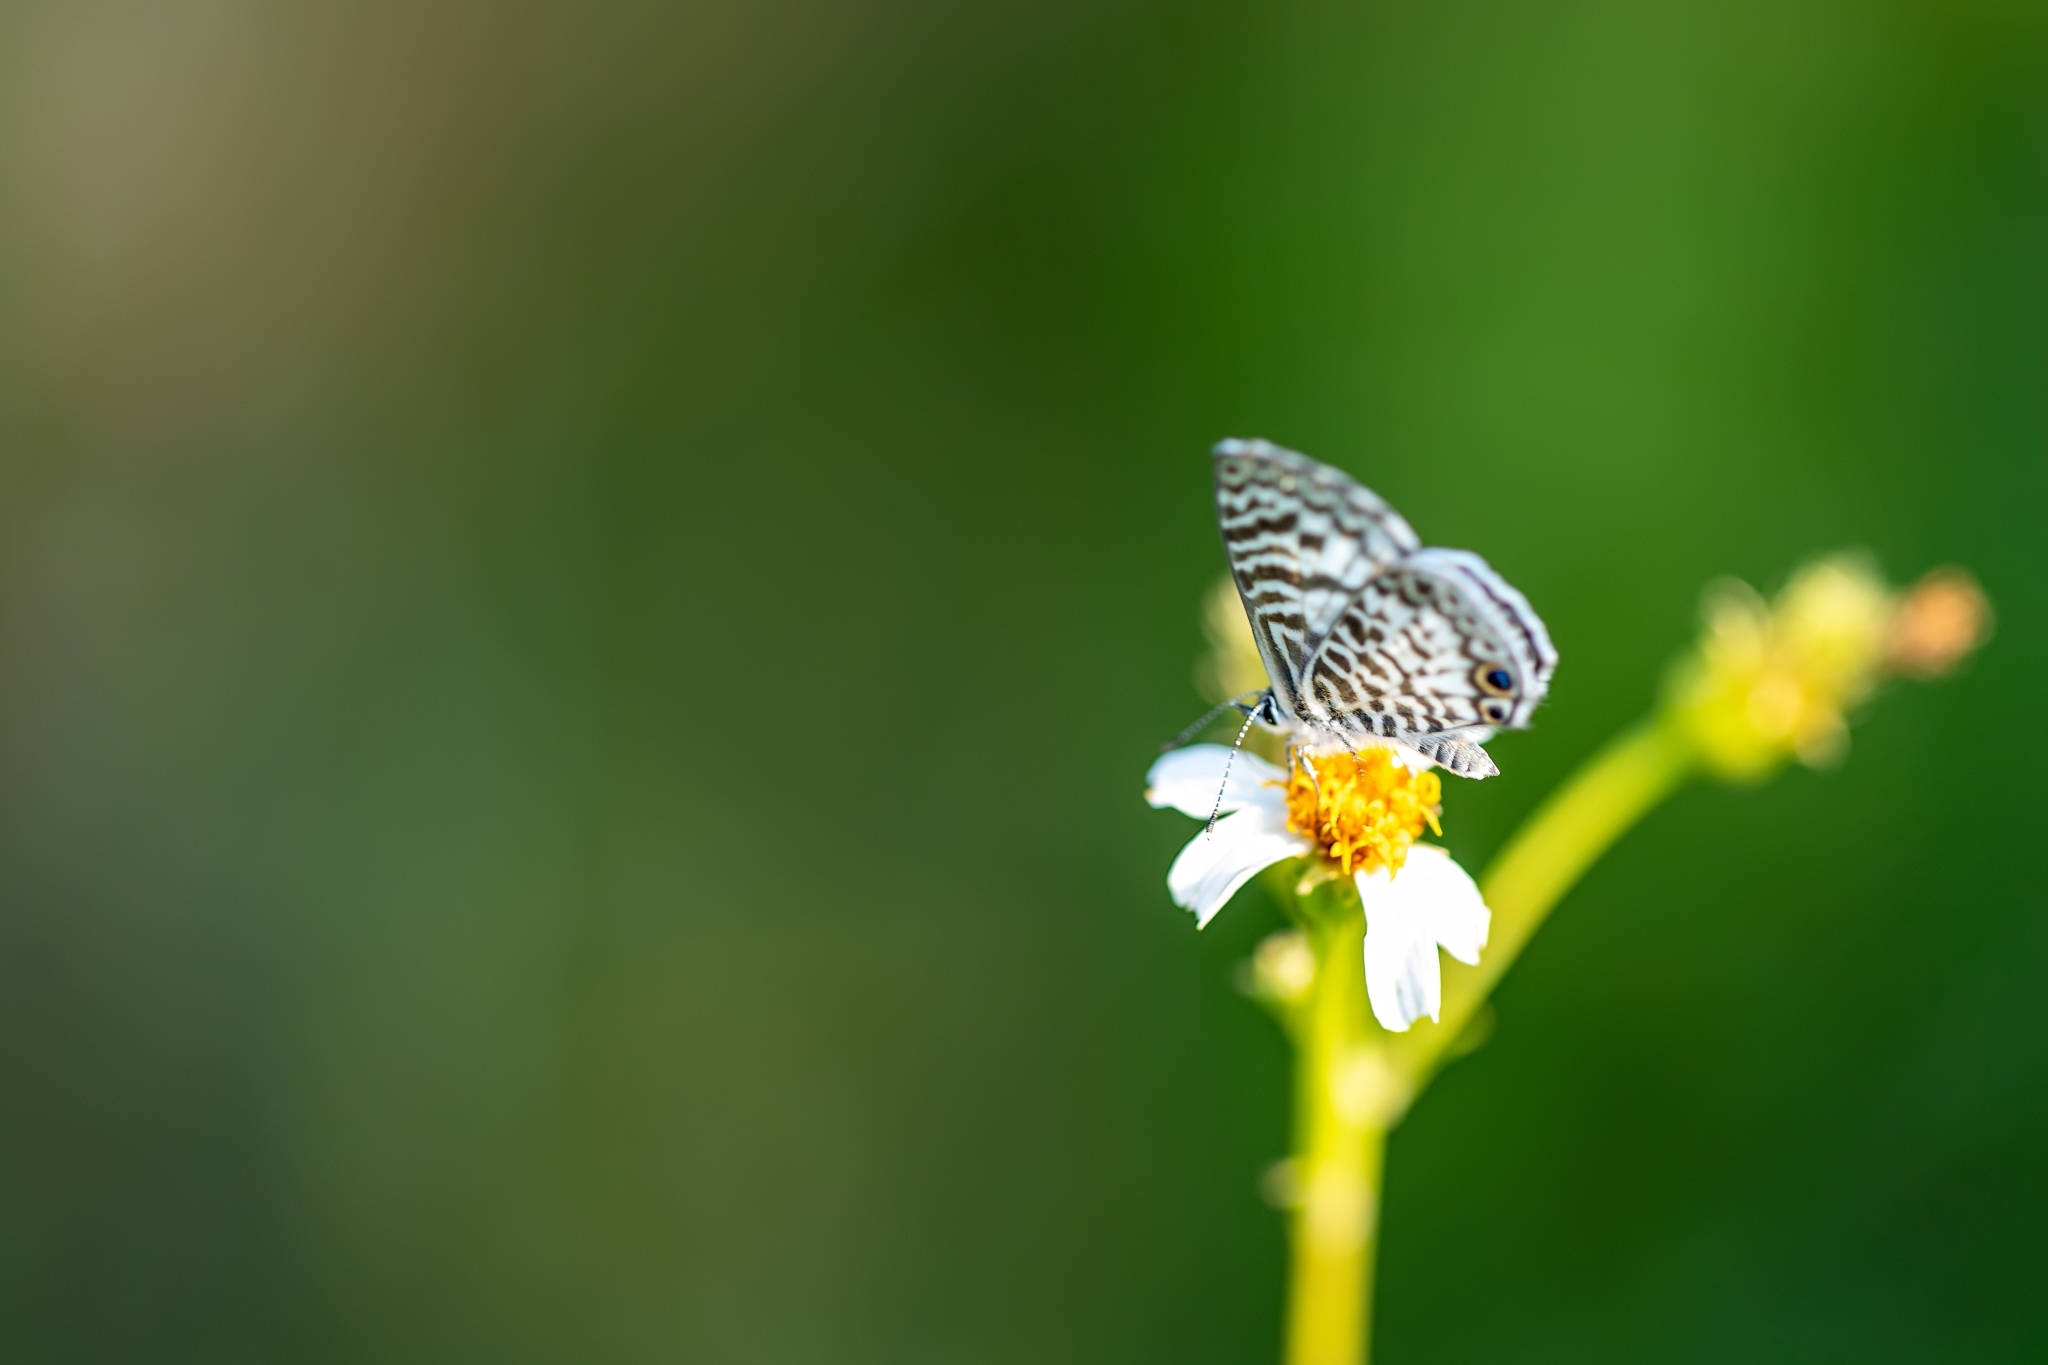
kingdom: Animalia
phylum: Arthropoda
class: Insecta
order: Lepidoptera
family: Lycaenidae
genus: Leptotes
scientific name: Leptotes cassius
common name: Cassius blue
